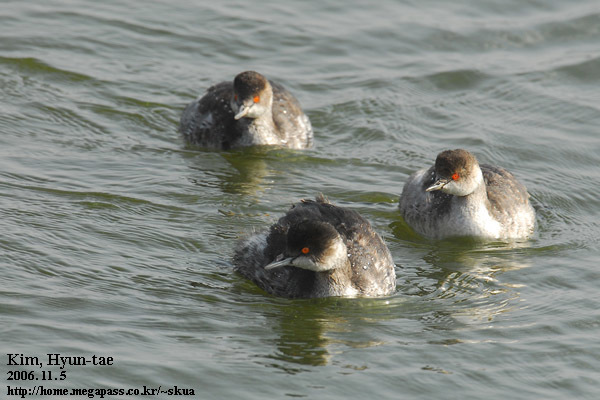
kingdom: Animalia
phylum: Chordata
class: Aves
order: Podicipediformes
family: Podicipedidae
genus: Podiceps
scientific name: Podiceps nigricollis
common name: Black-necked grebe
